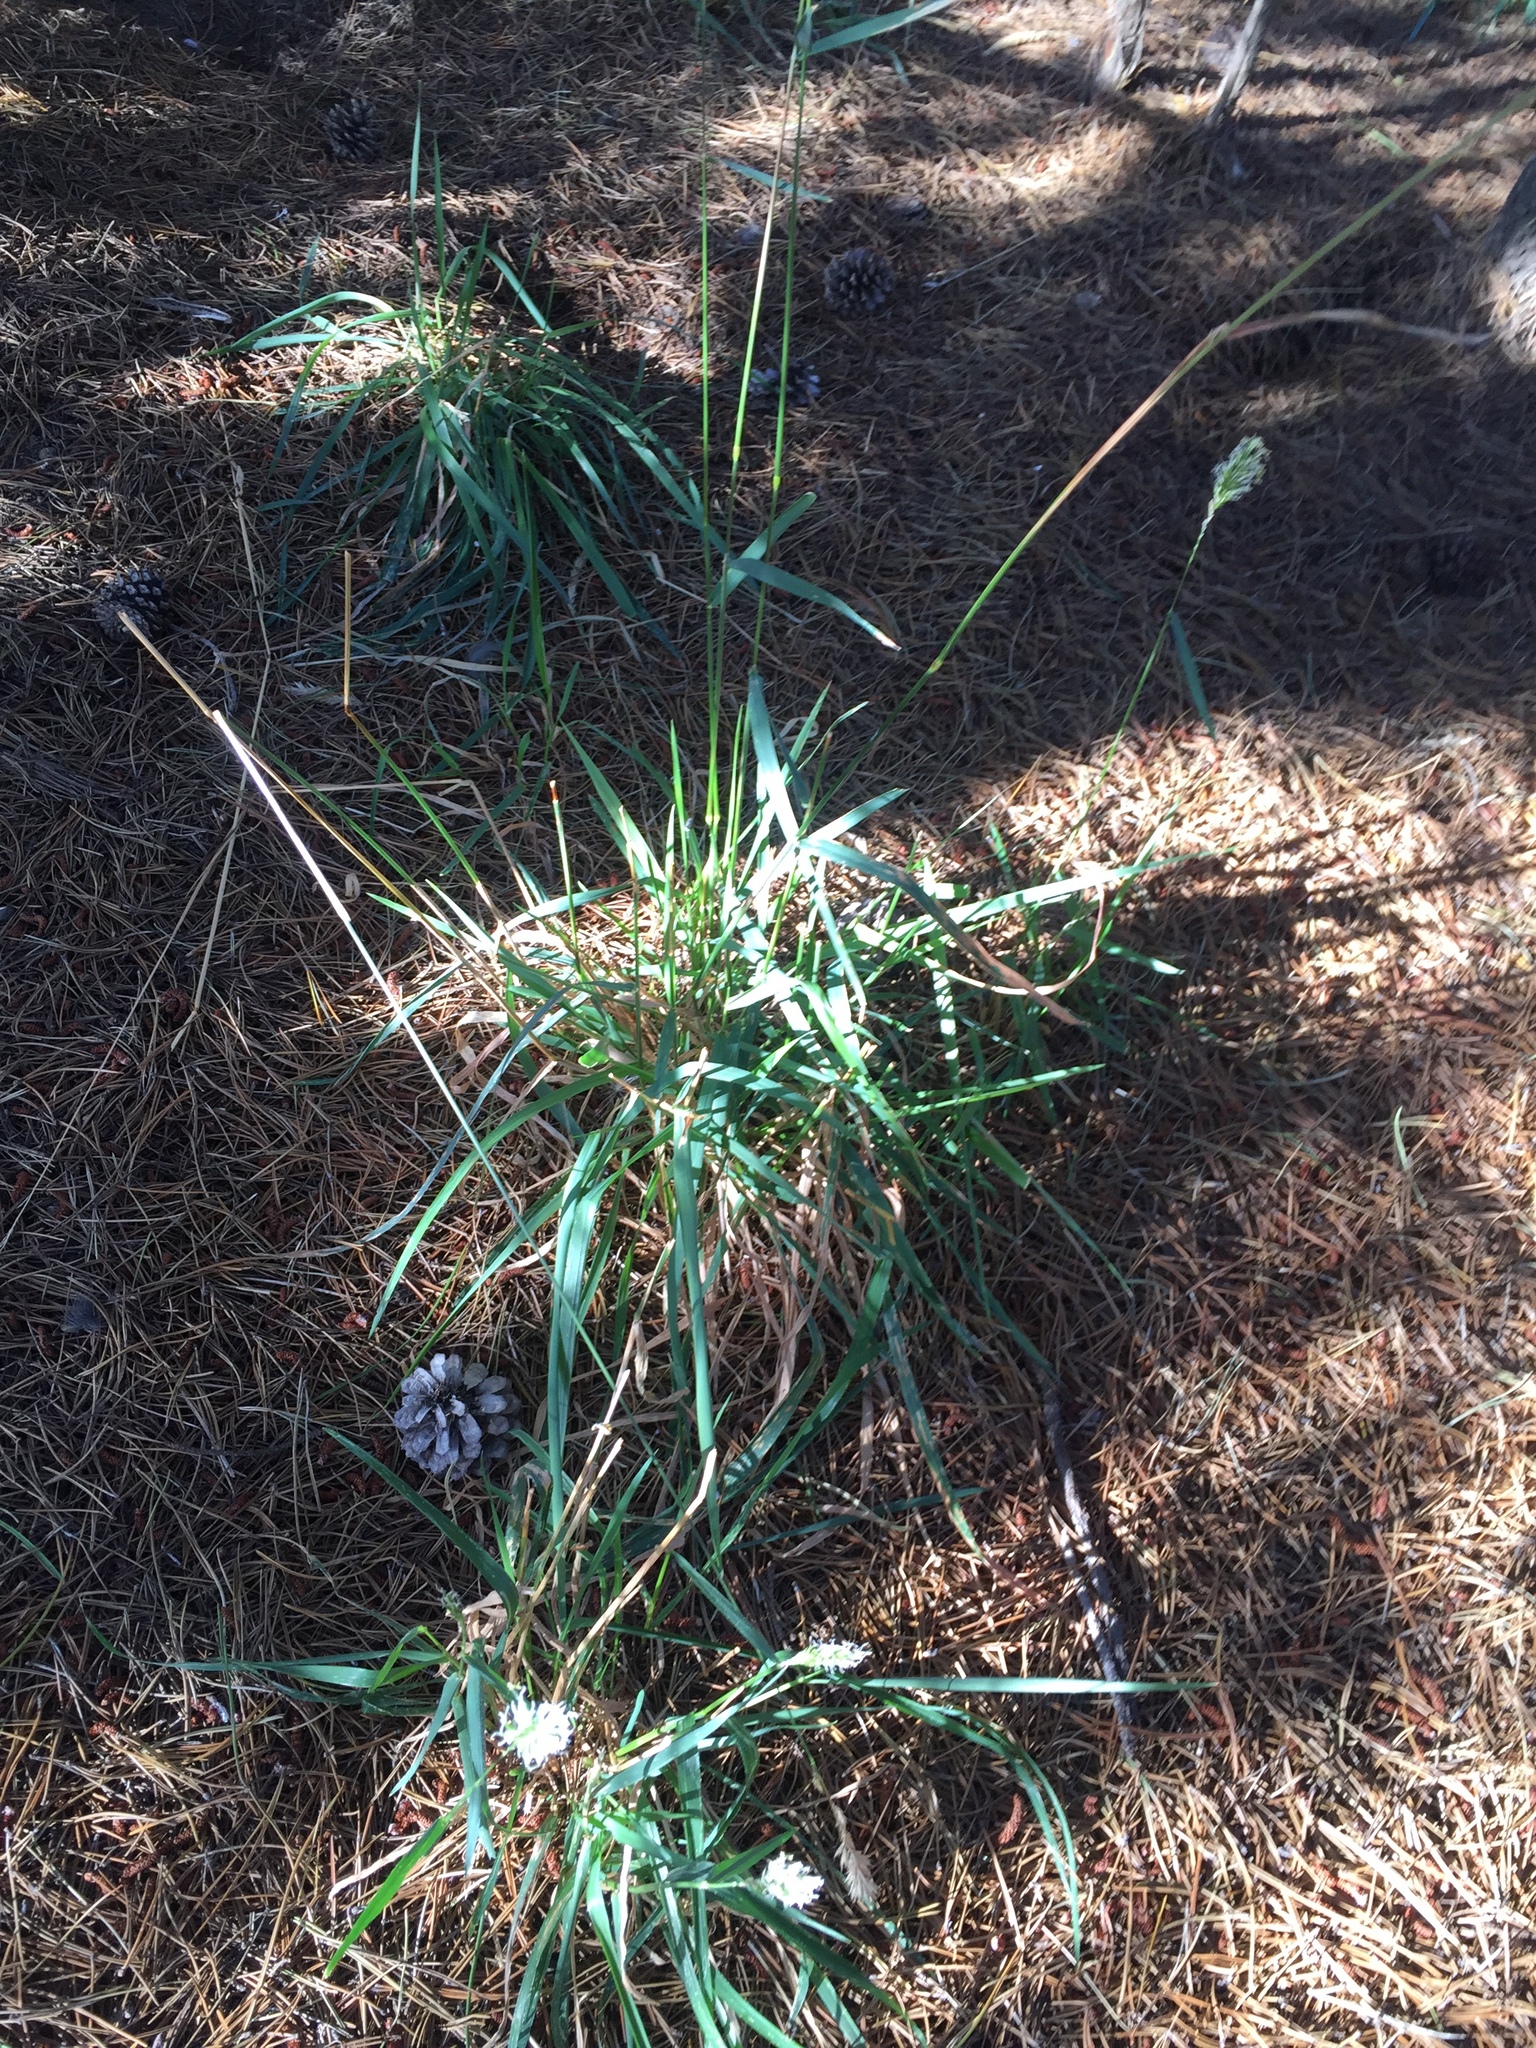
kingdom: Plantae
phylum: Tracheophyta
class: Liliopsida
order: Poales
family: Poaceae
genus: Anthoxanthum
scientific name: Anthoxanthum odoratum
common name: Sweet vernalgrass
